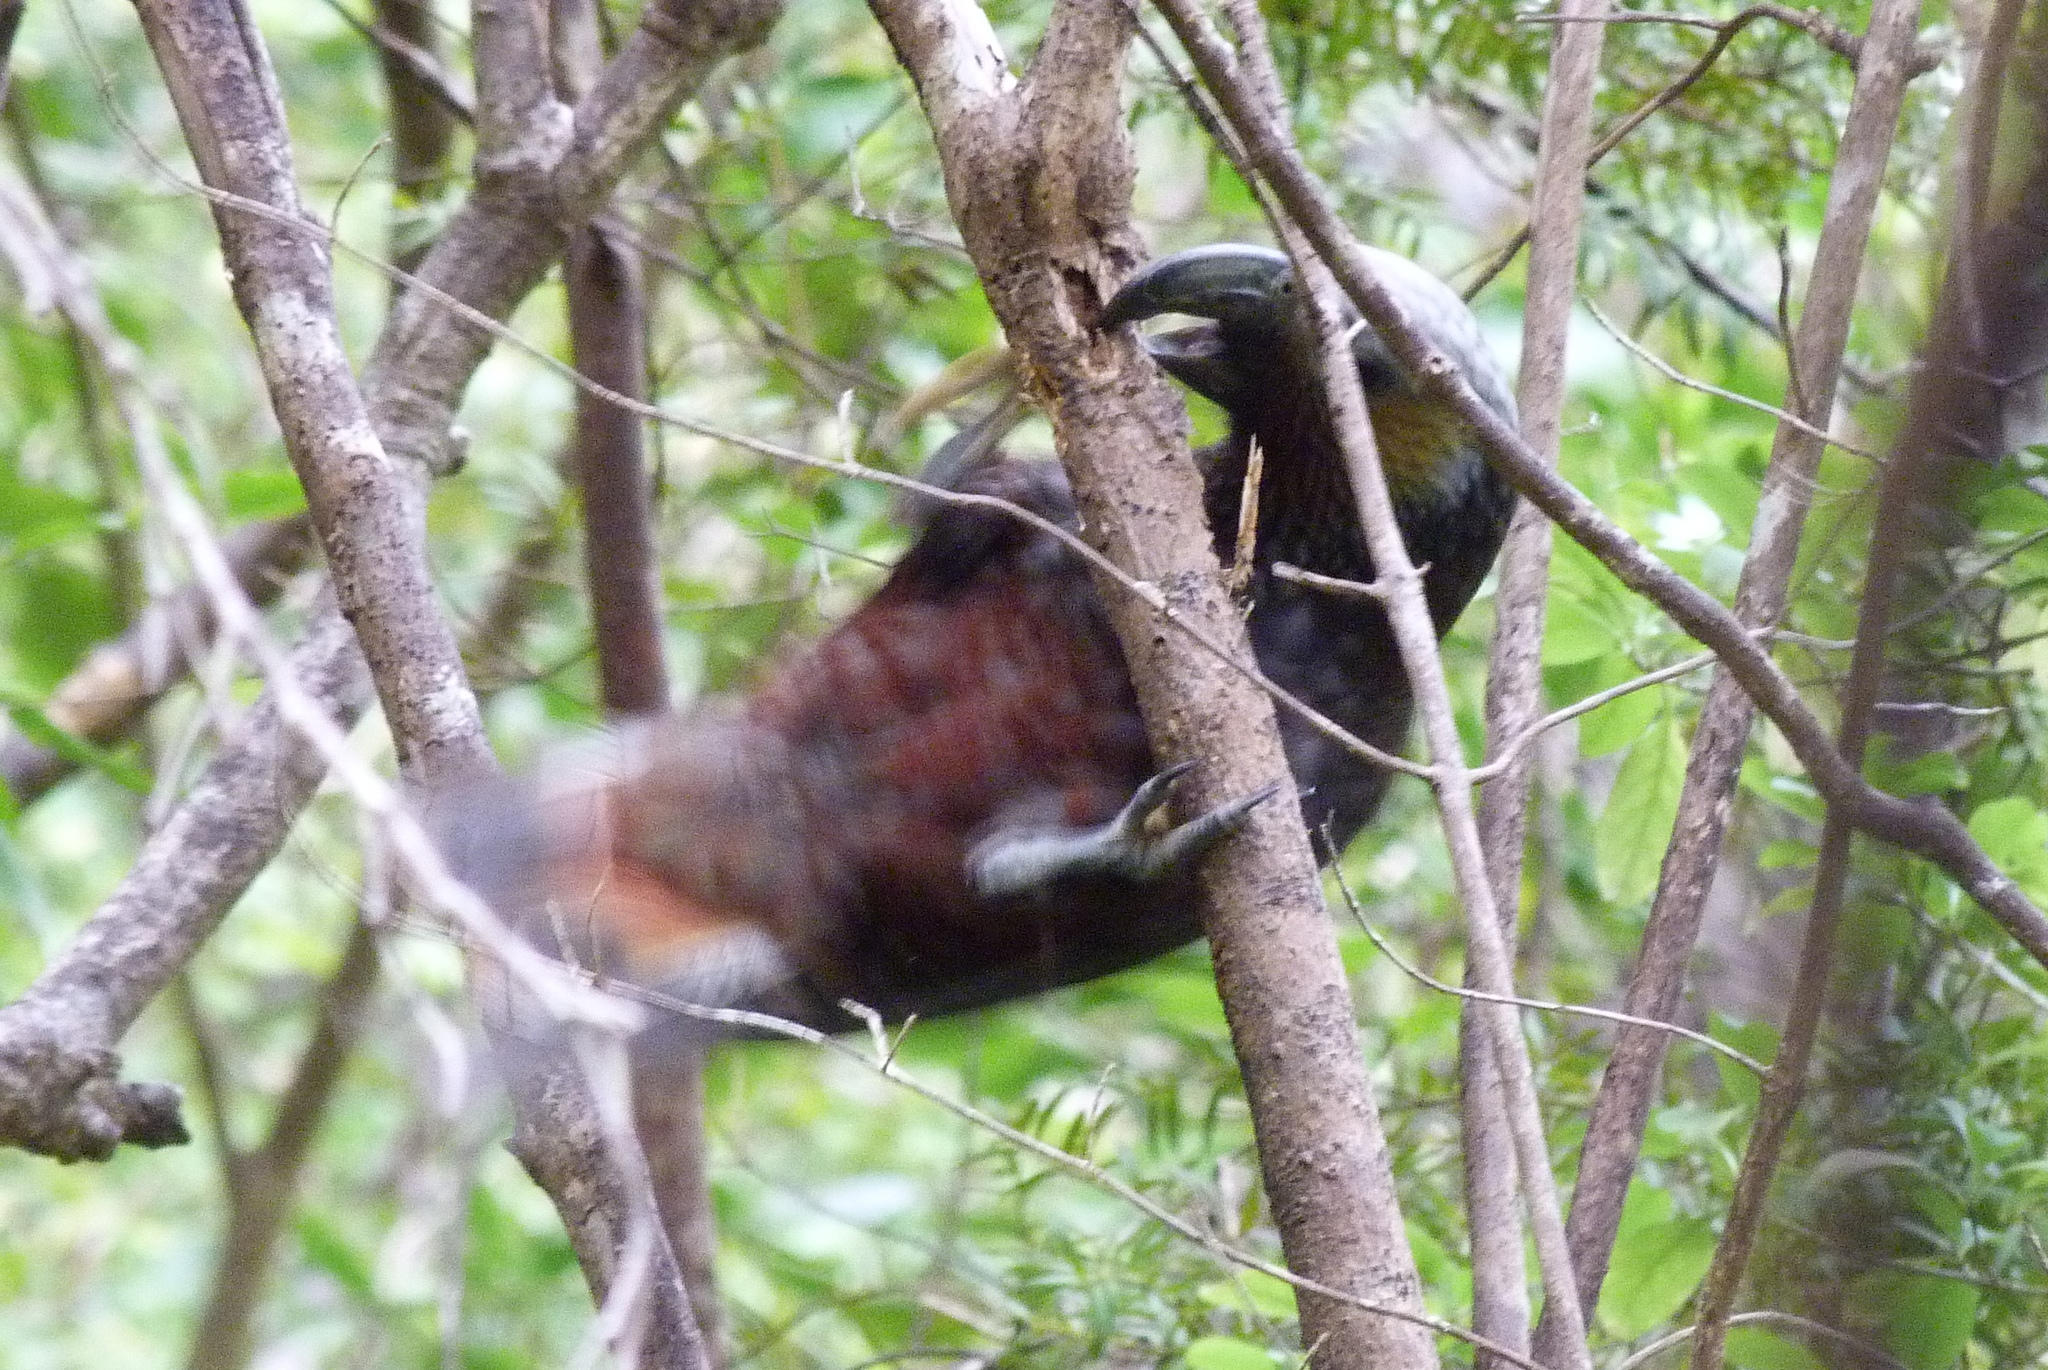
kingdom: Animalia
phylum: Chordata
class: Aves
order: Psittaciformes
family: Psittacidae
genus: Nestor
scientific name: Nestor meridionalis
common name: New zealand kaka
